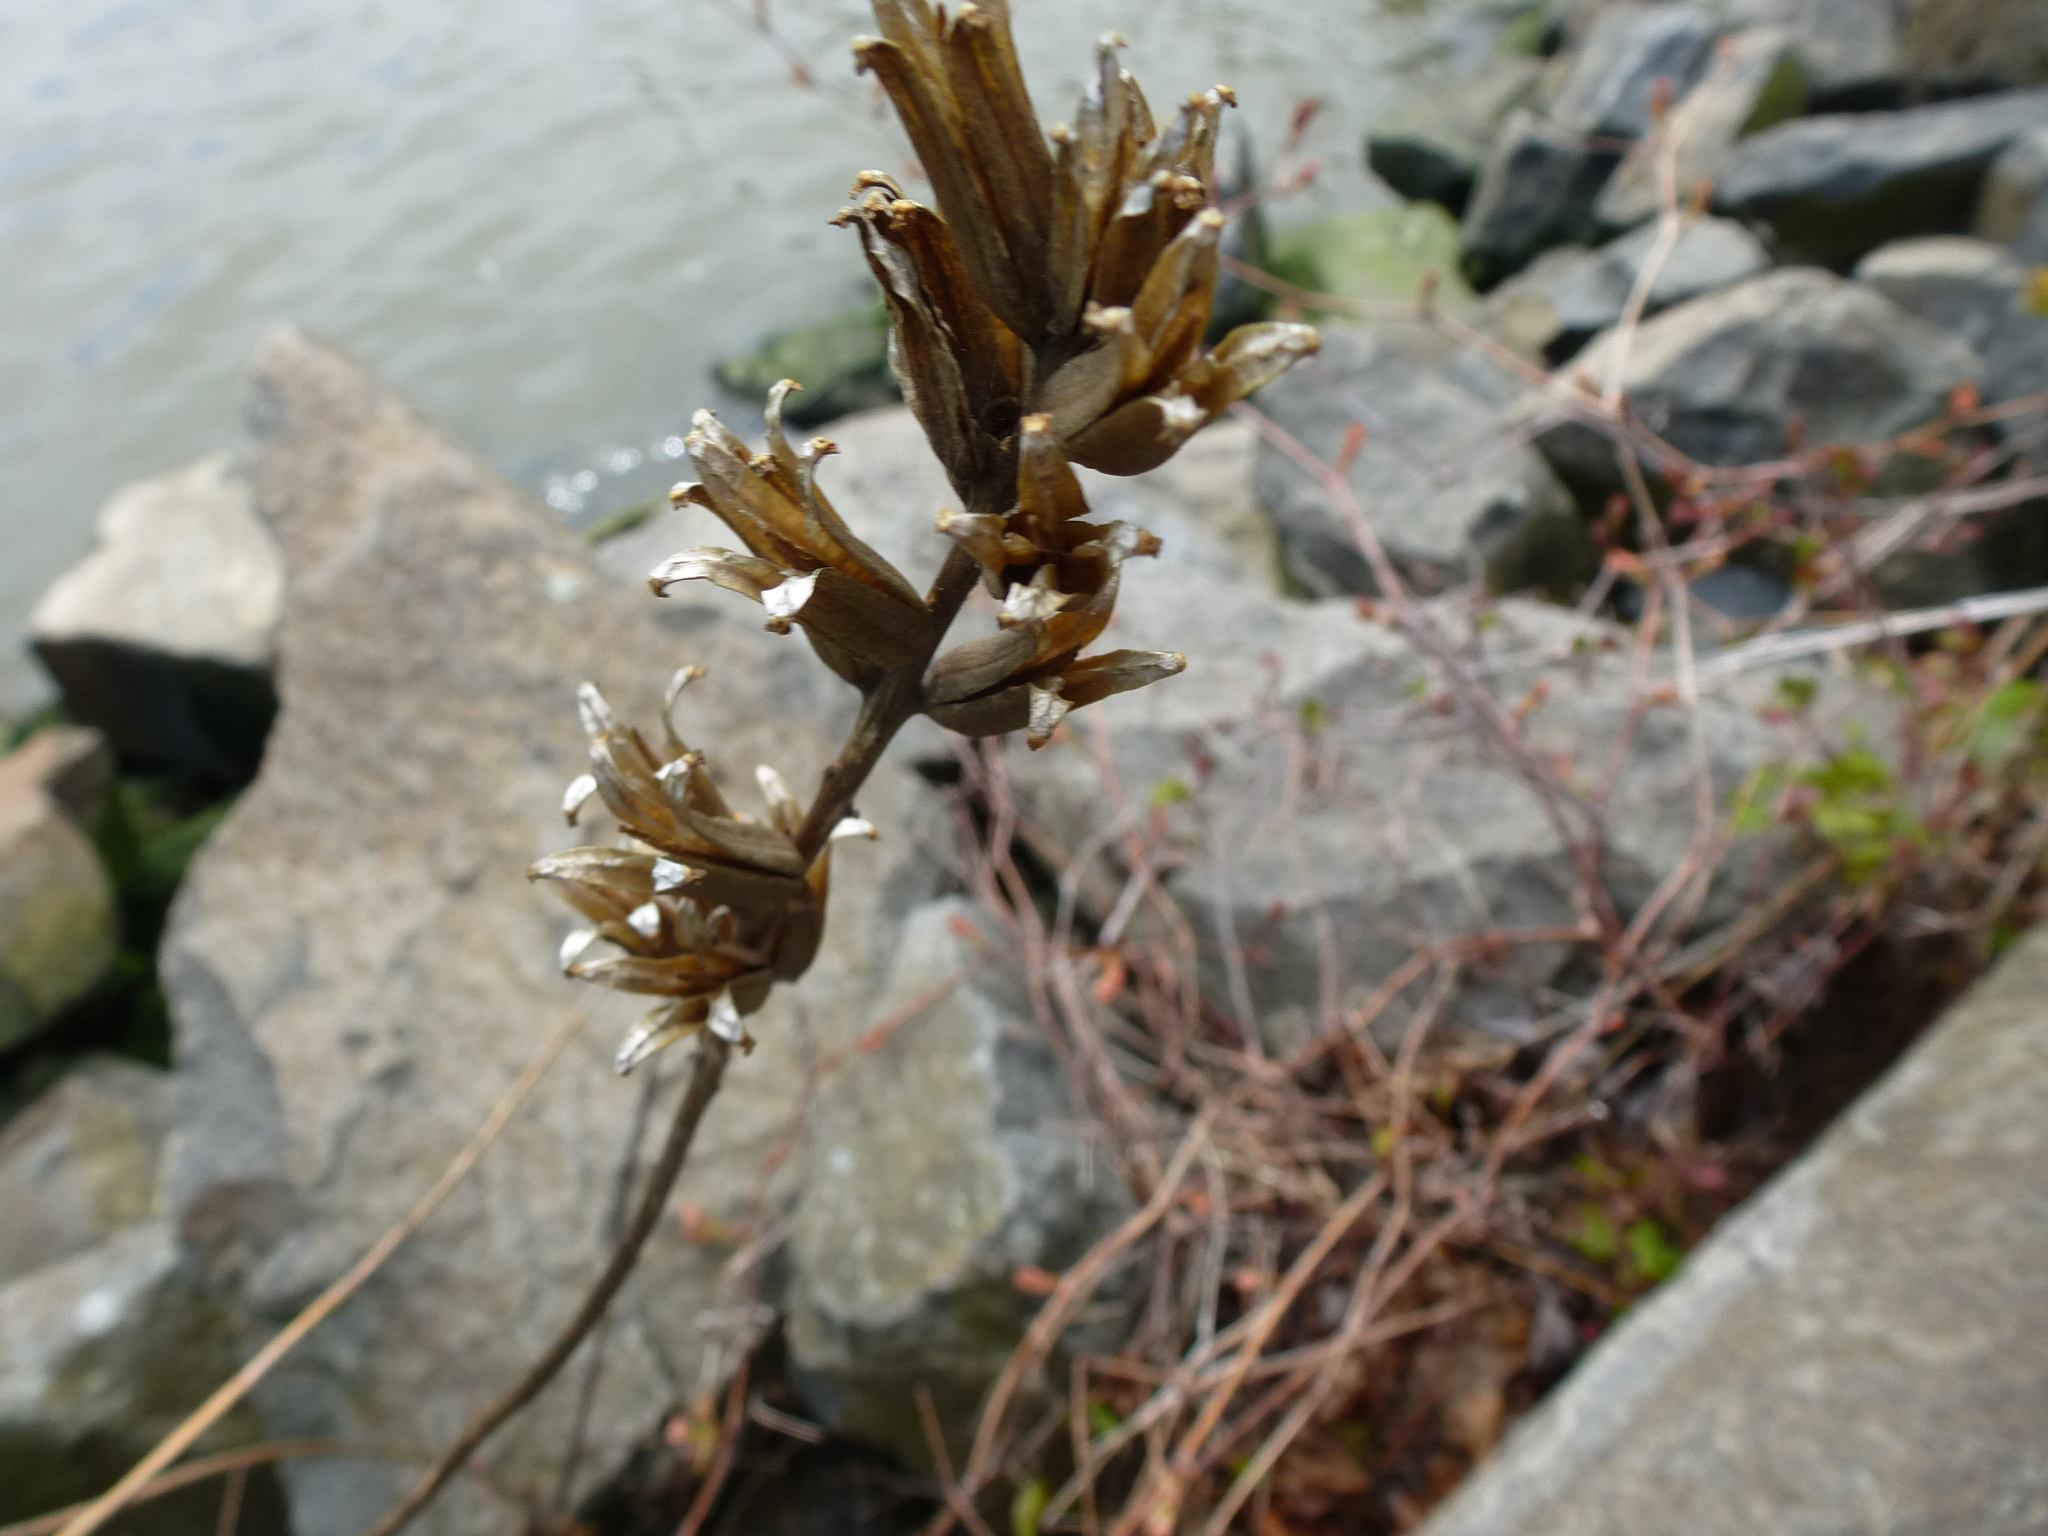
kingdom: Plantae
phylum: Tracheophyta
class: Magnoliopsida
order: Myrtales
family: Onagraceae
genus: Oenothera
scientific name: Oenothera biennis
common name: Common evening-primrose
